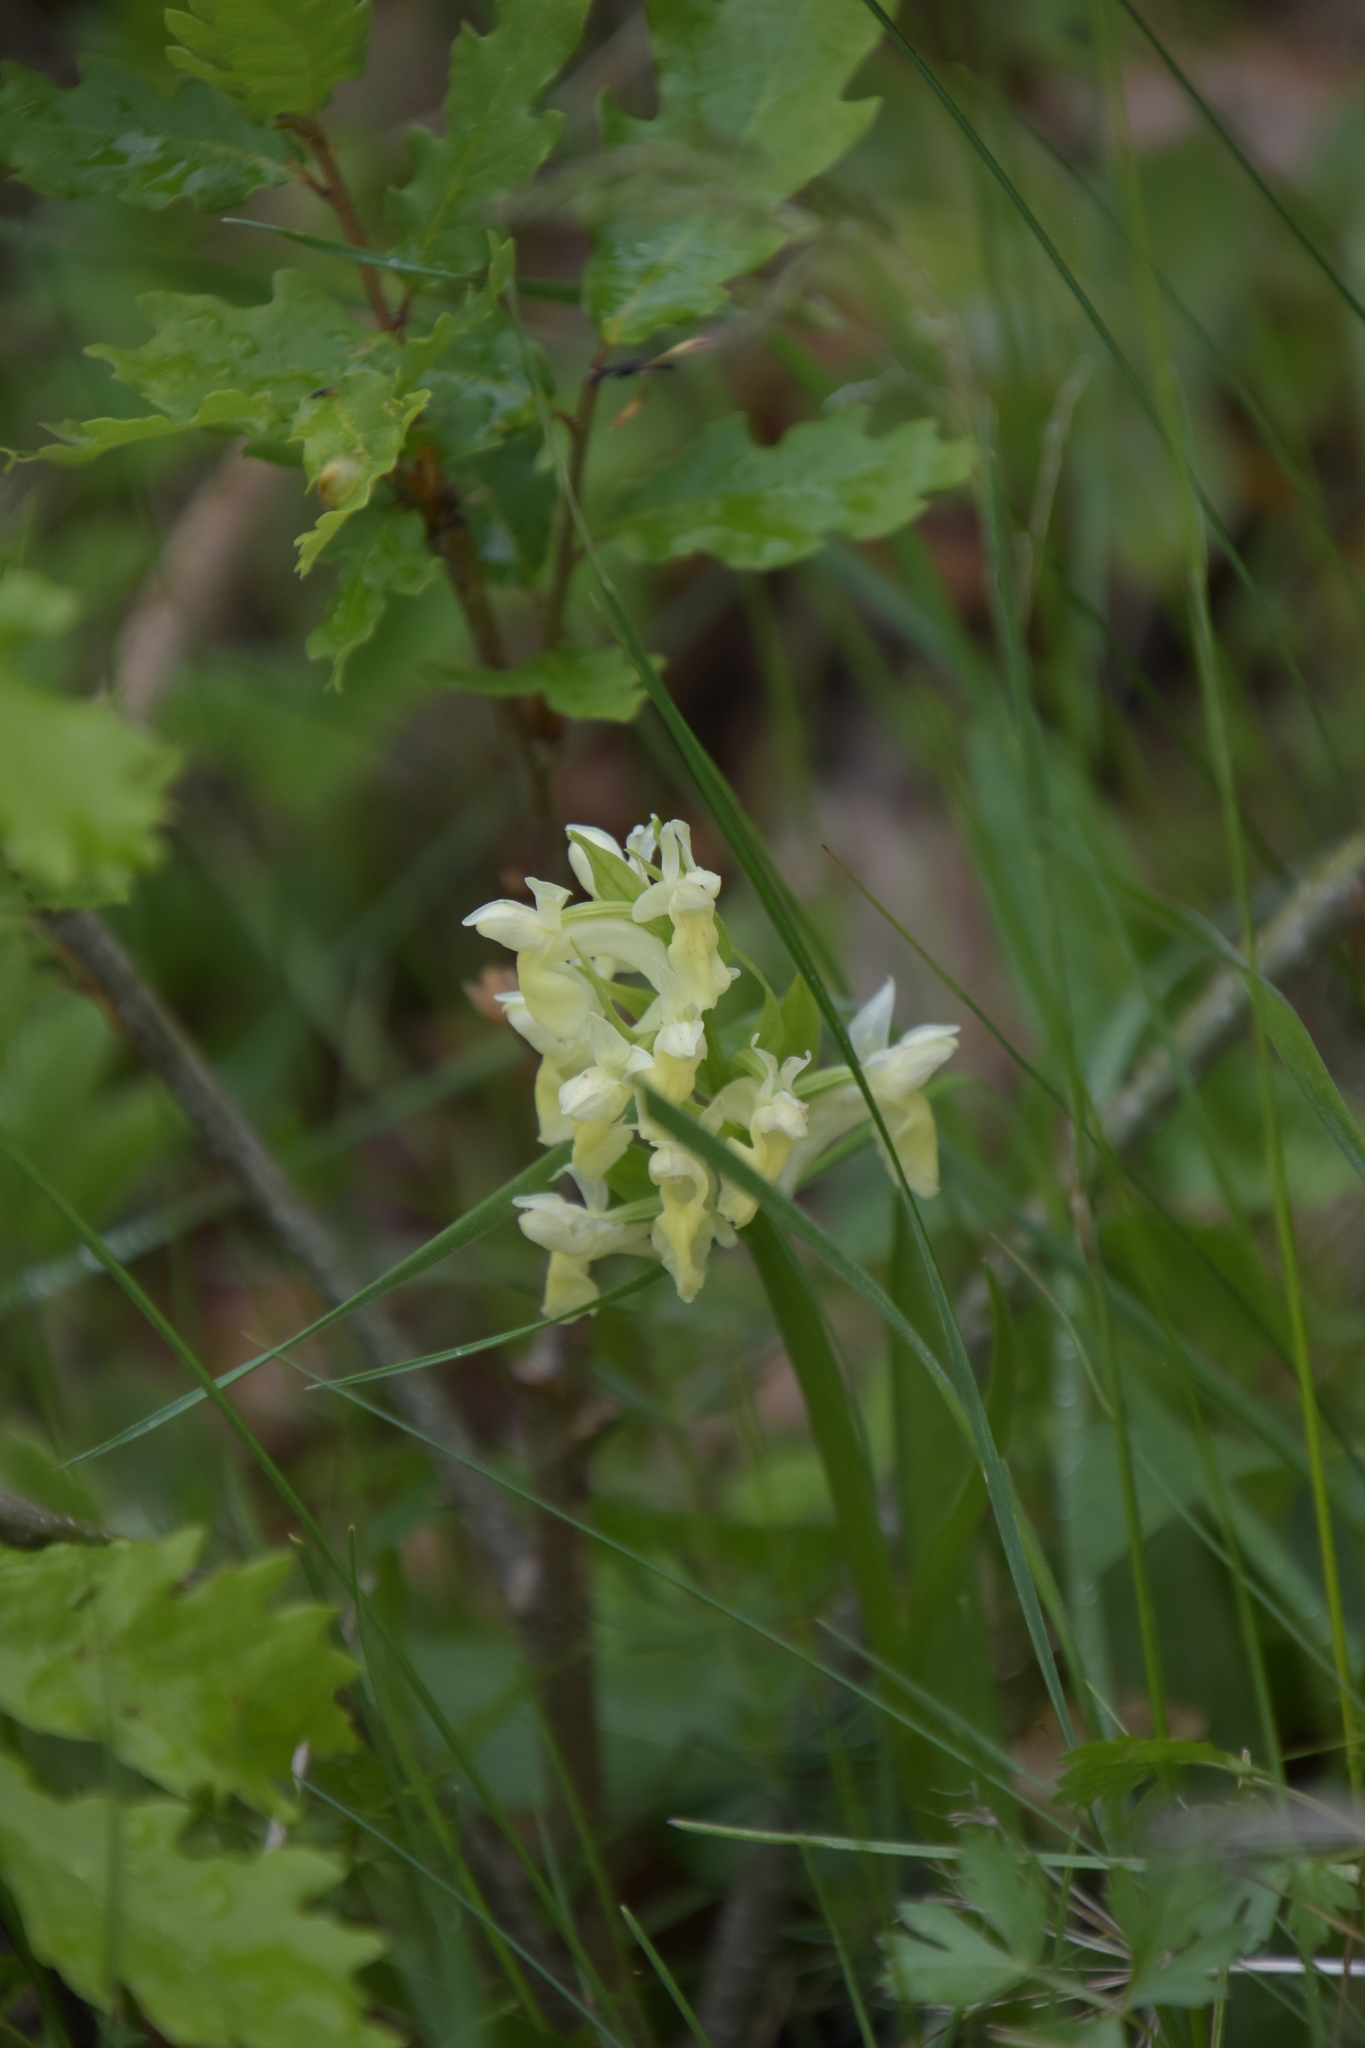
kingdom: Plantae
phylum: Tracheophyta
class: Liliopsida
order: Asparagales
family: Orchidaceae
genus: Dactylorhiza
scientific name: Dactylorhiza sambucina
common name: Elder-flowered orchid
